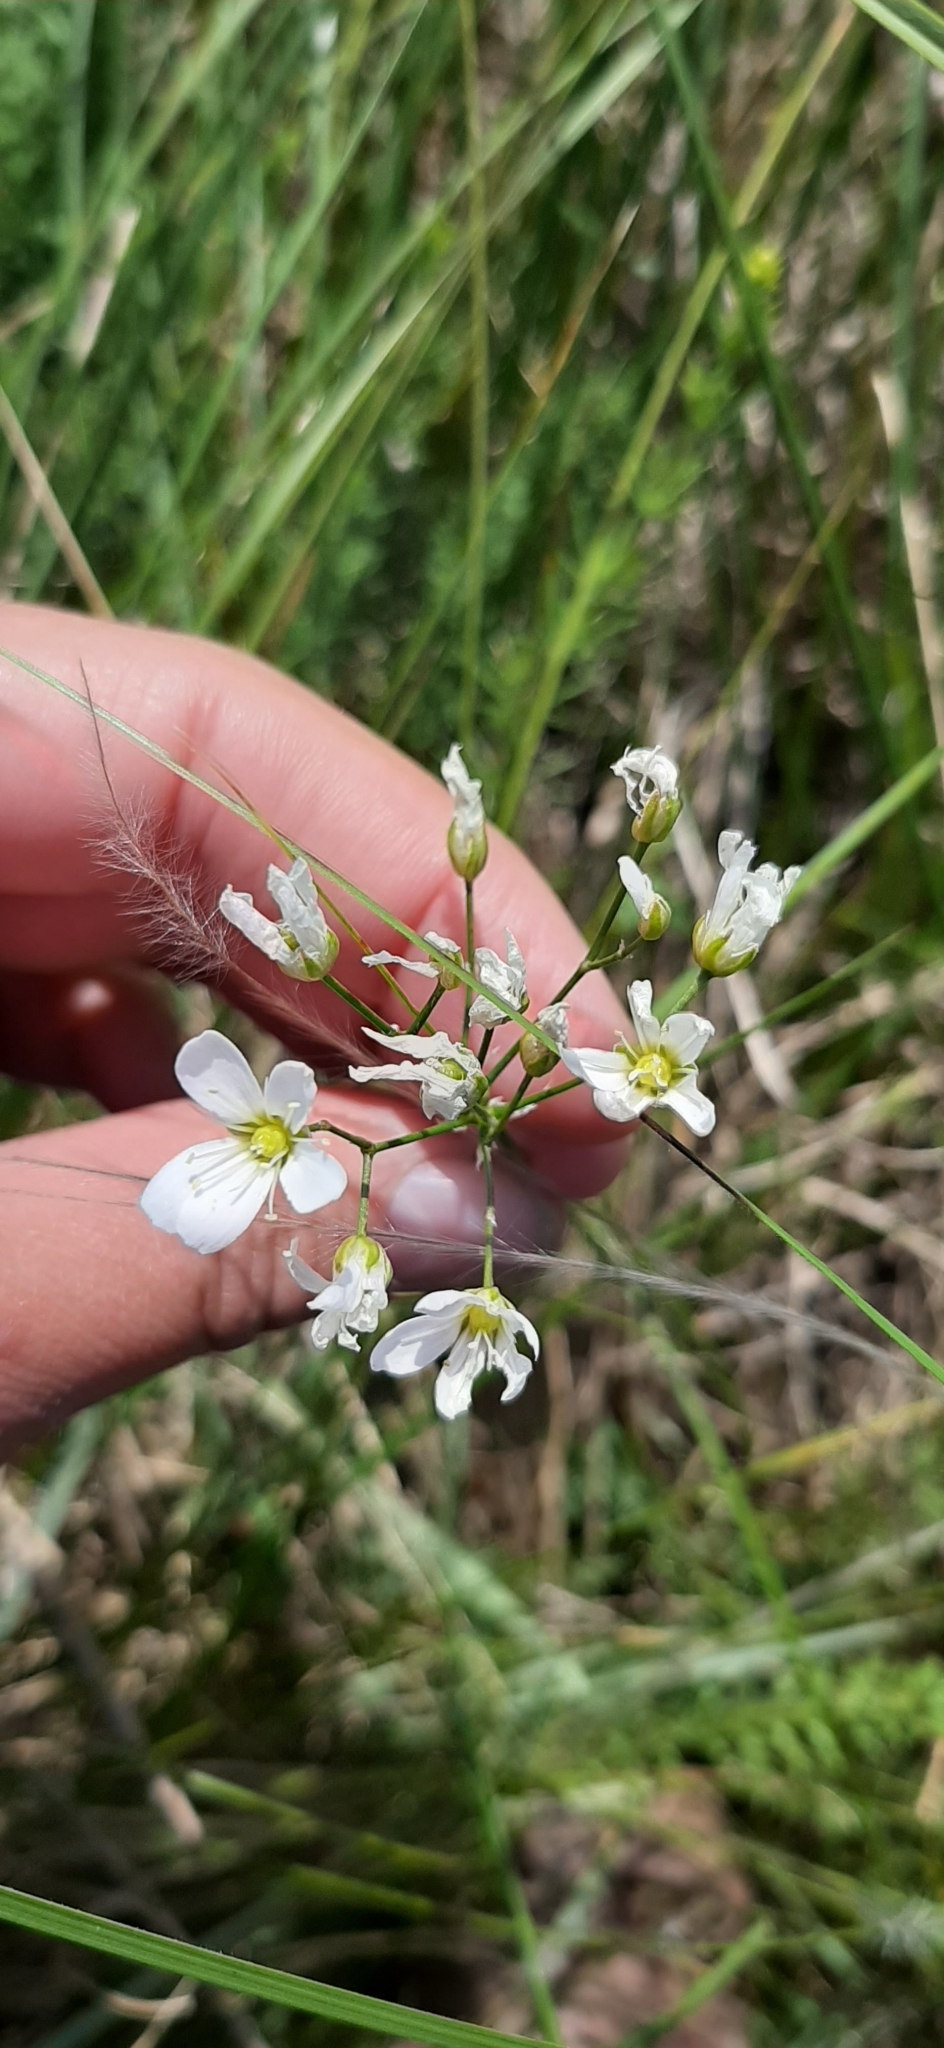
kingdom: Plantae
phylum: Tracheophyta
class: Magnoliopsida
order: Caryophyllales
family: Caryophyllaceae
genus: Eremogone
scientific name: Eremogone saxatilis
